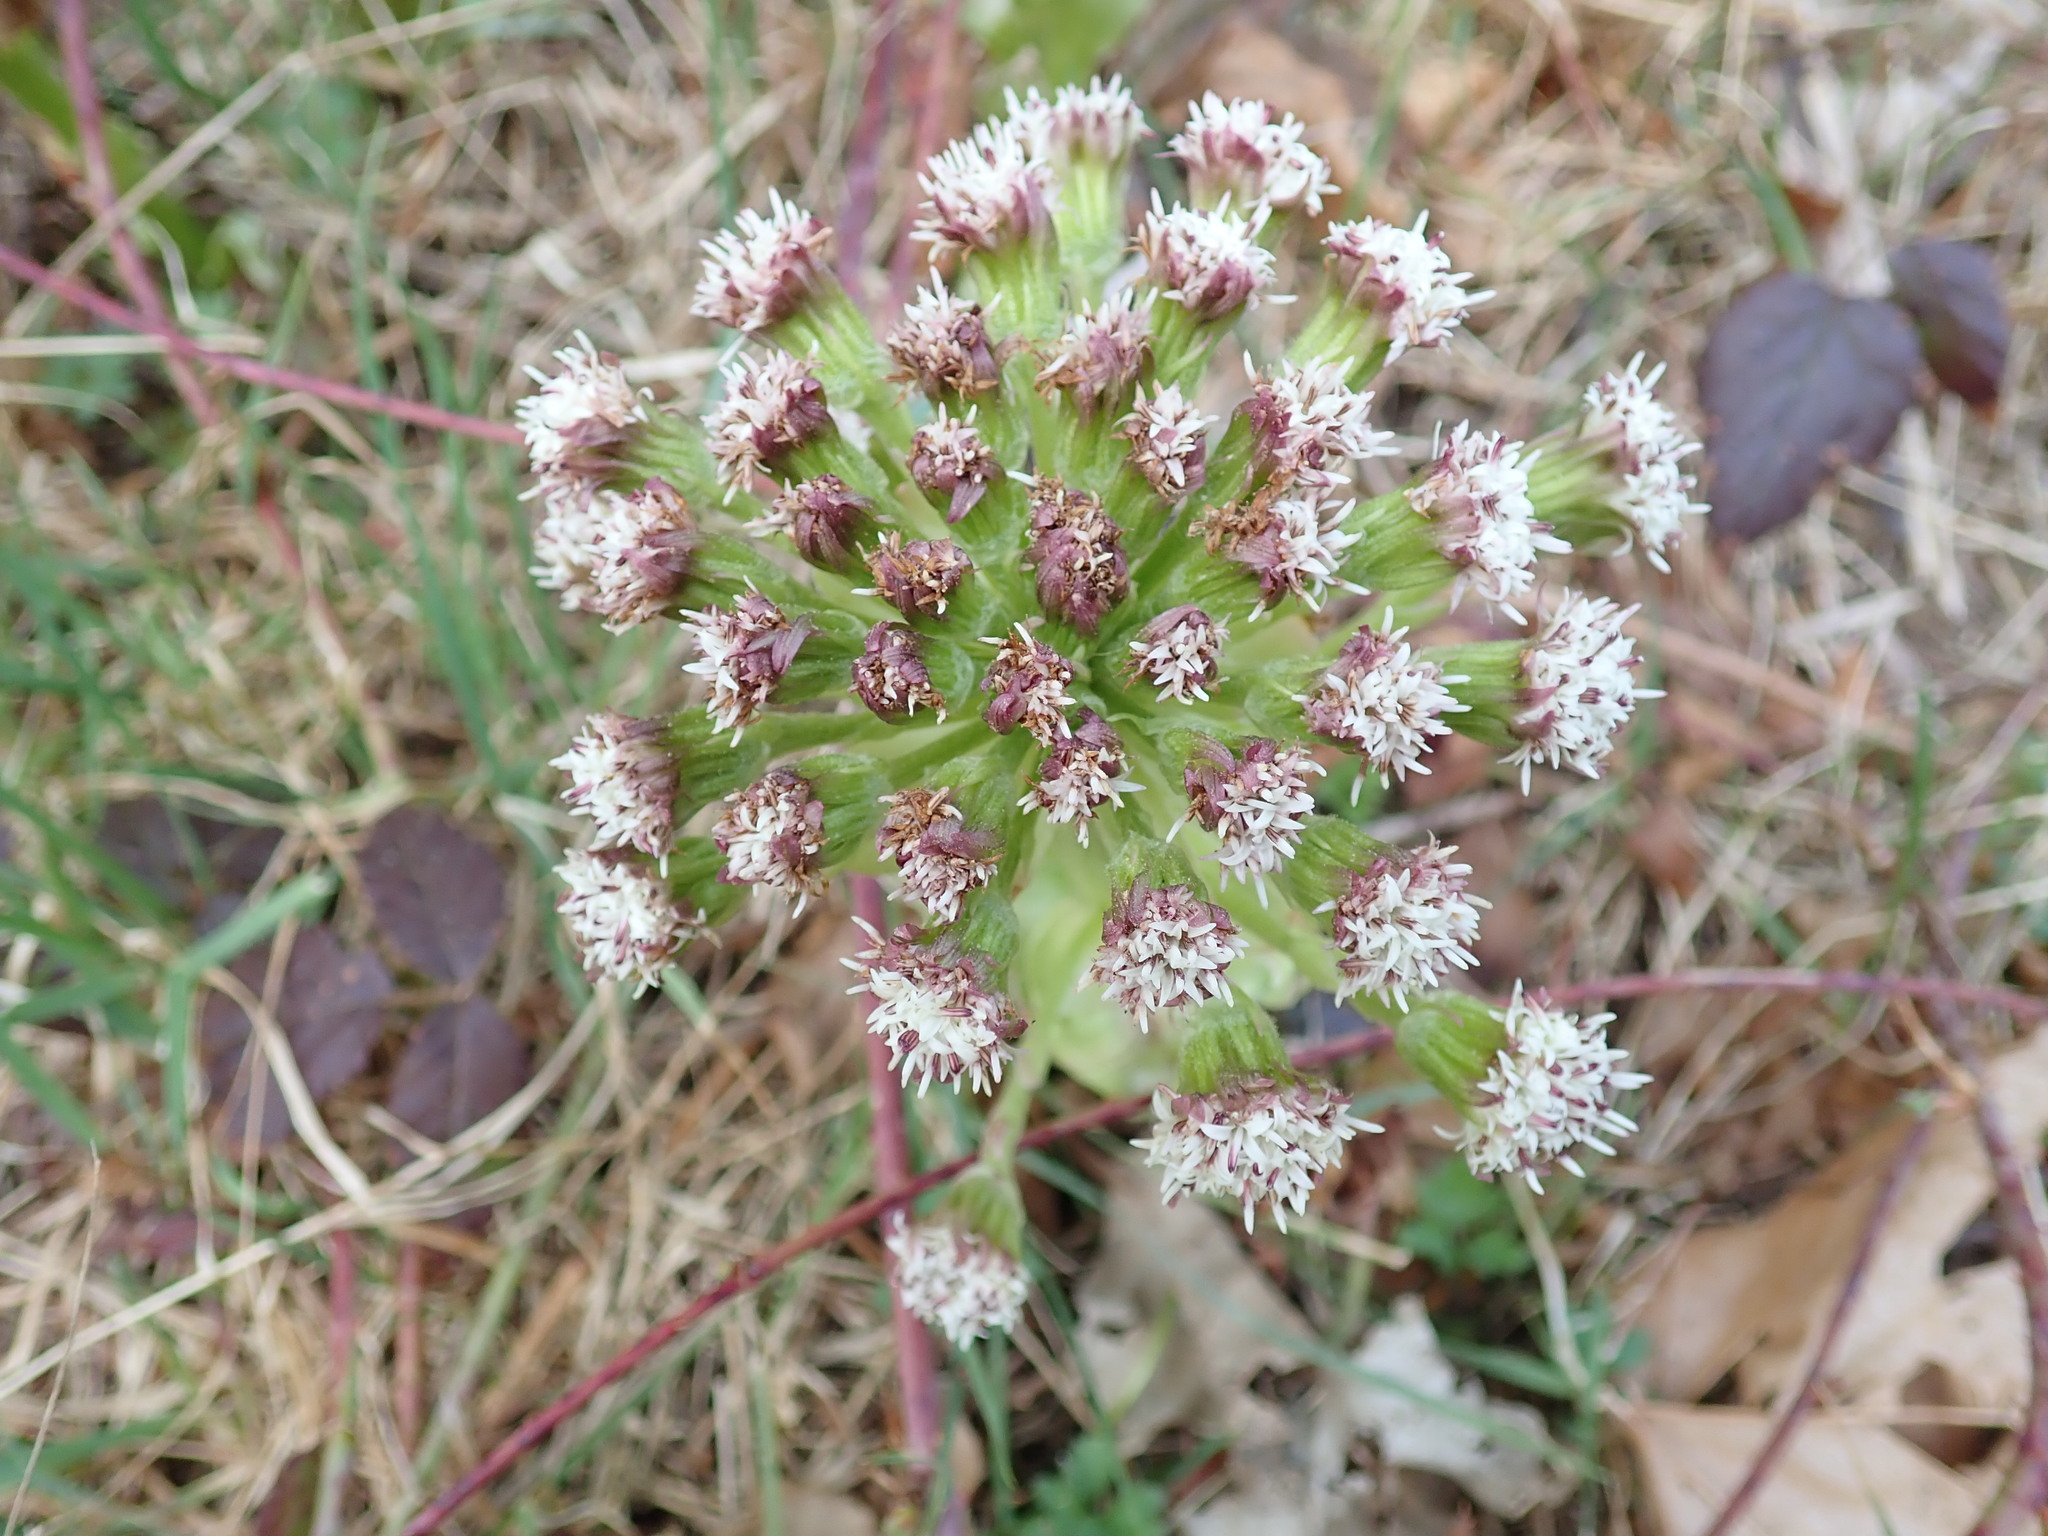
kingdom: Plantae
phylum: Tracheophyta
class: Magnoliopsida
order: Asterales
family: Asteraceae
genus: Petasites
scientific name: Petasites frigidus
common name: Arctic butterbur
